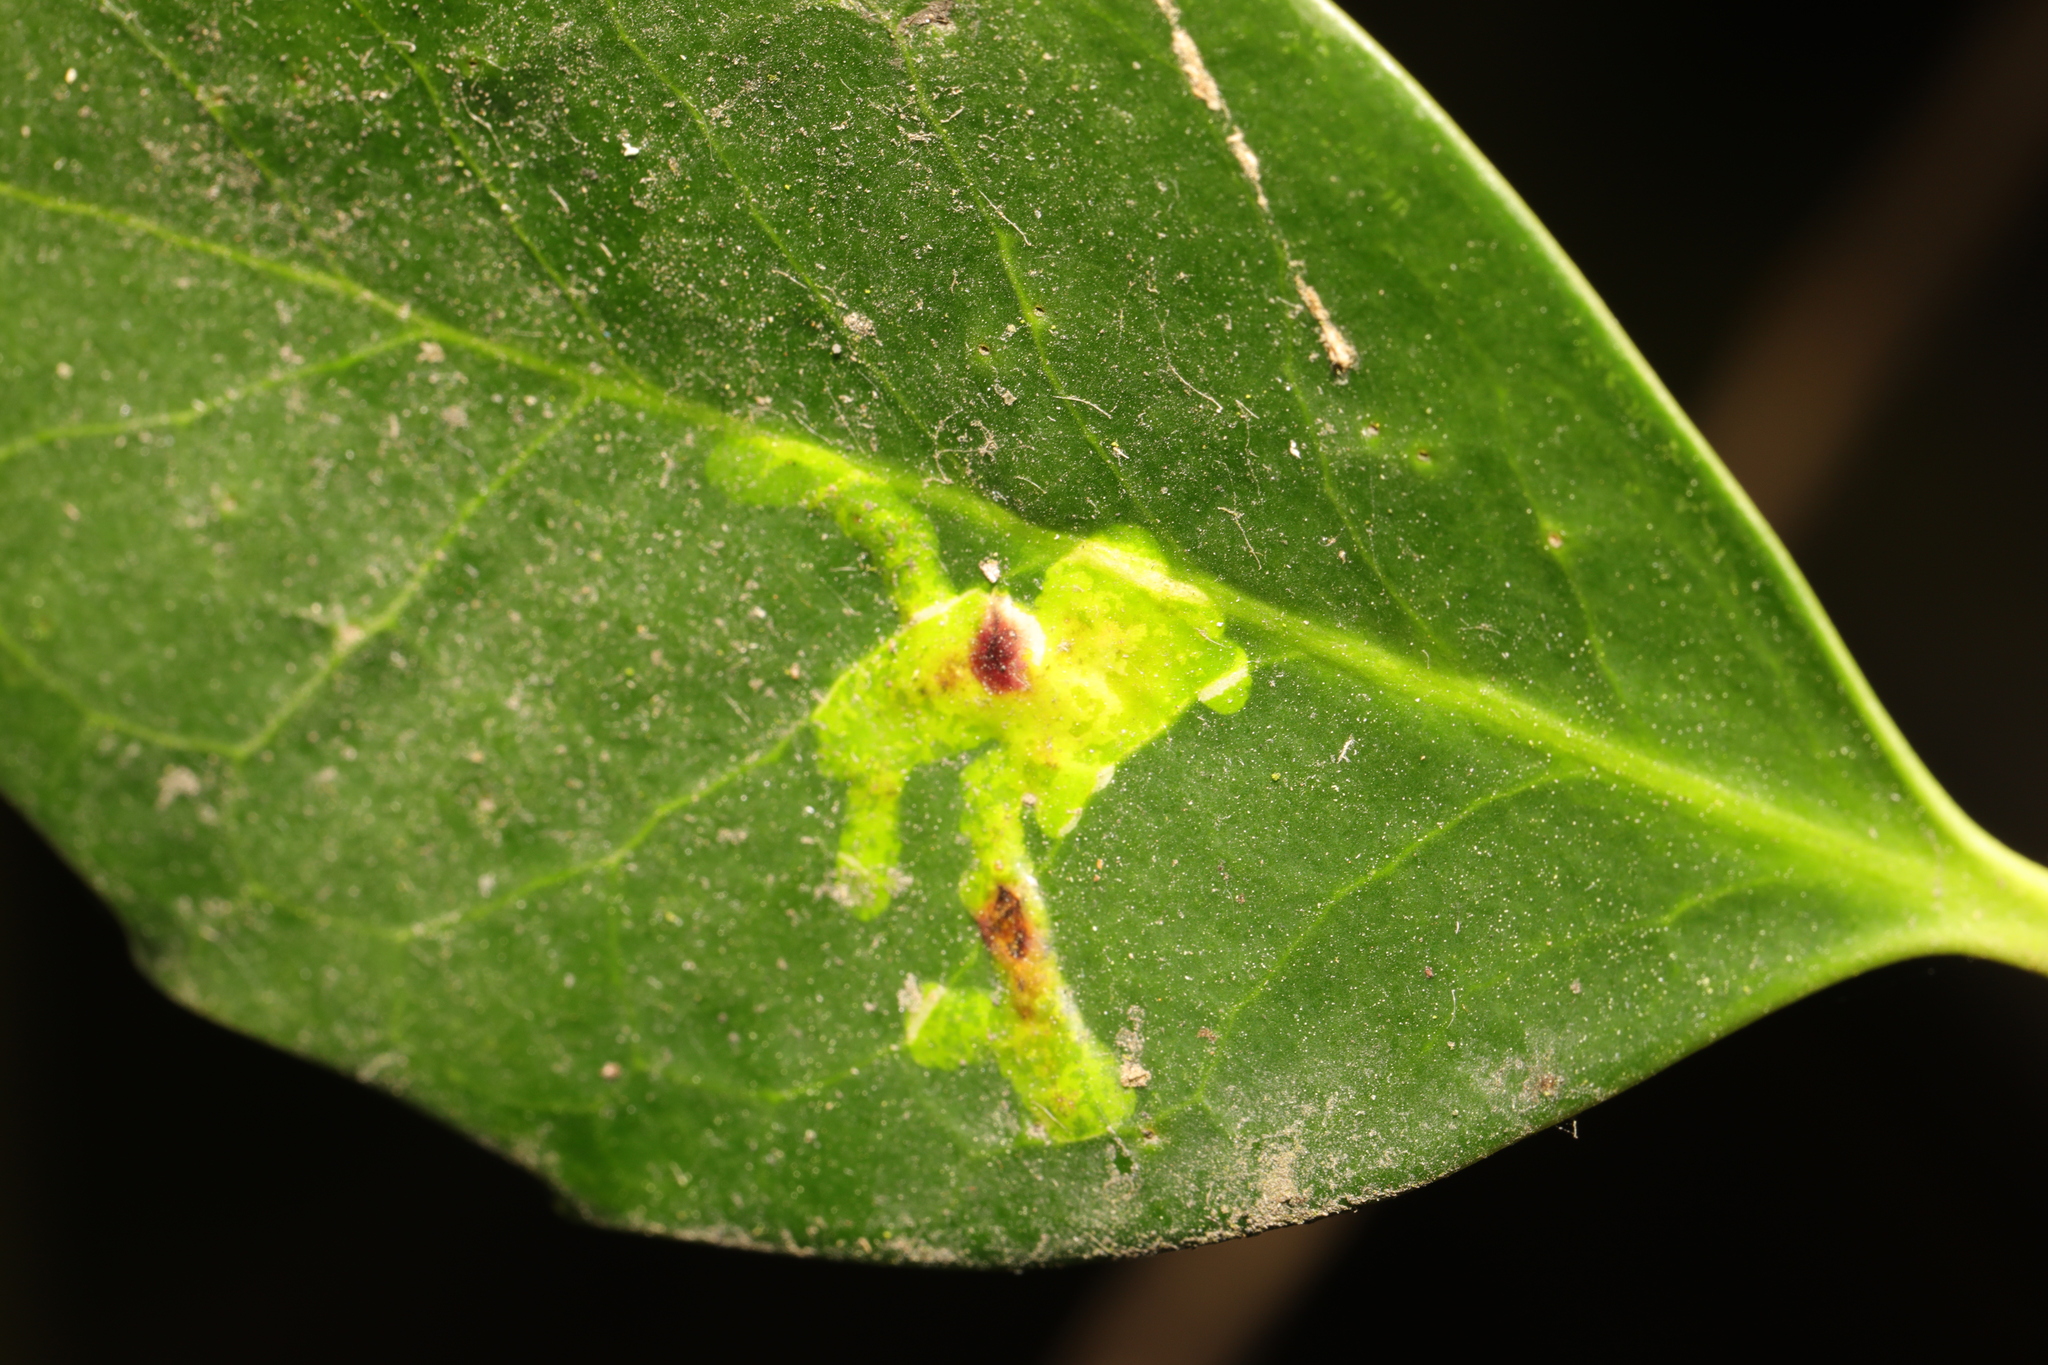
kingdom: Animalia
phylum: Arthropoda
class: Insecta
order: Diptera
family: Agromyzidae
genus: Phytomyza
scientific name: Phytomyza ilicis
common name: Holly leafminer
